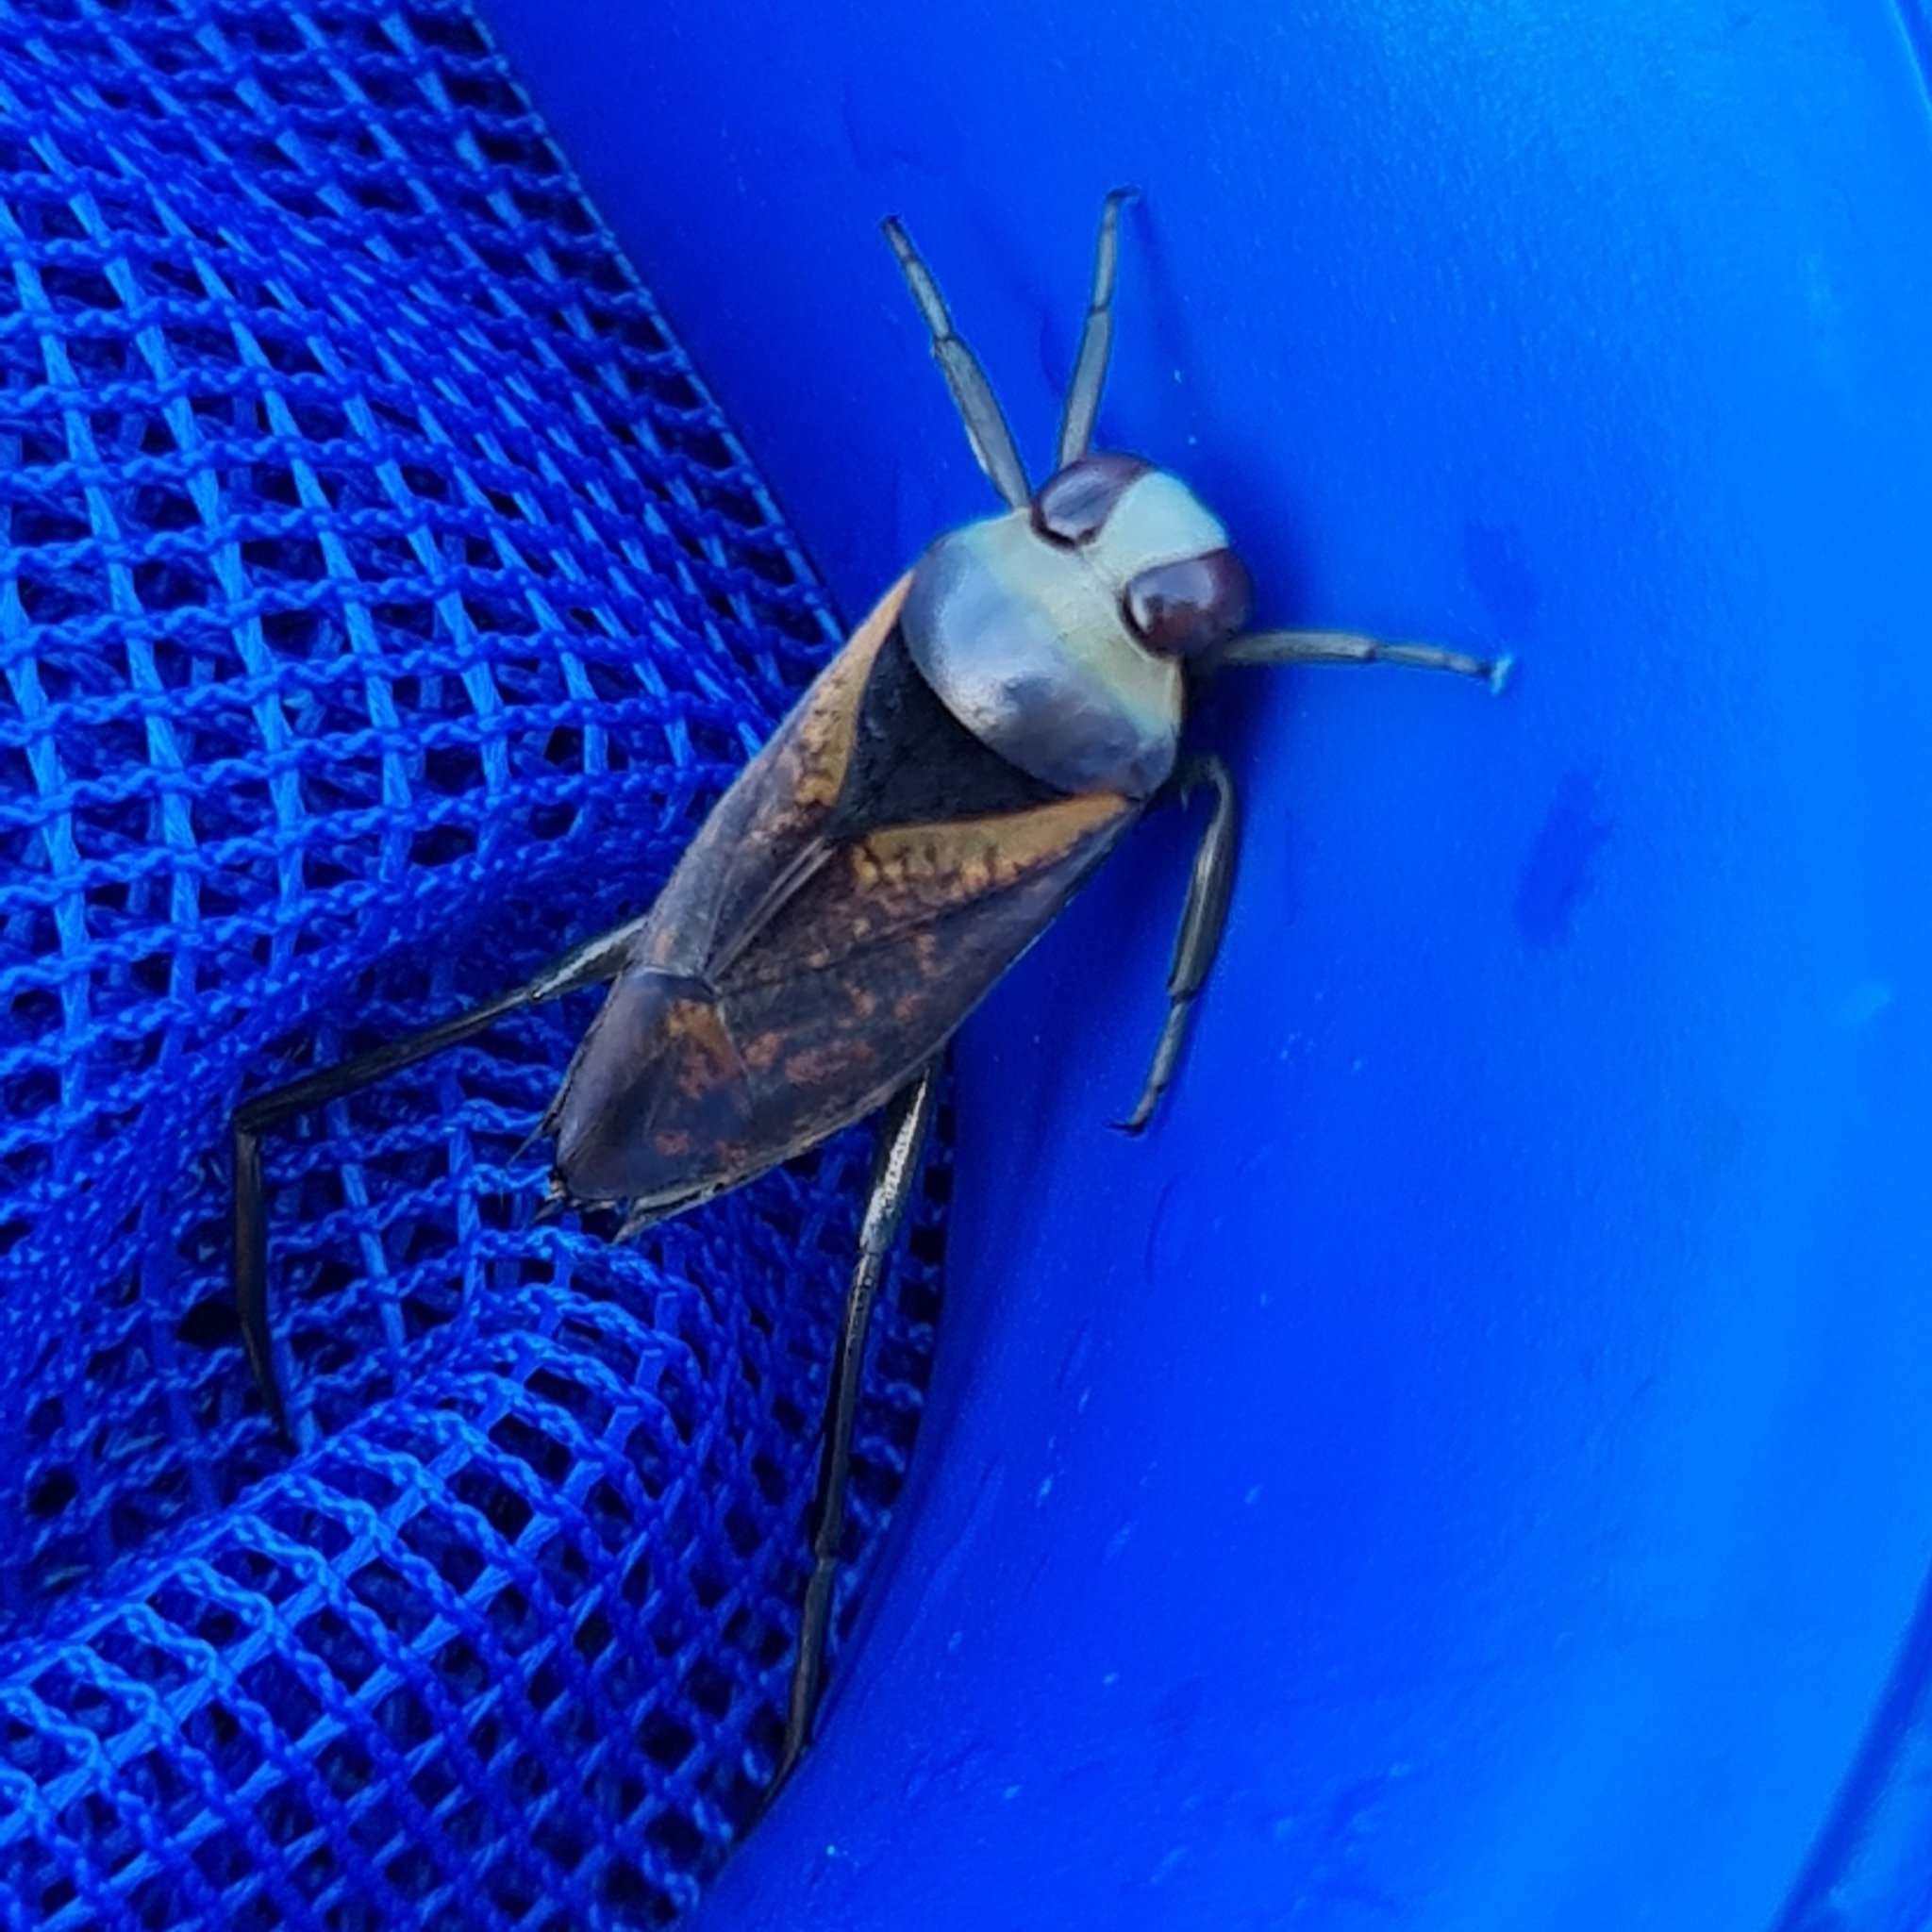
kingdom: Animalia
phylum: Arthropoda
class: Insecta
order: Hemiptera
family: Notonectidae
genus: Notonecta
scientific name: Notonecta maculata
